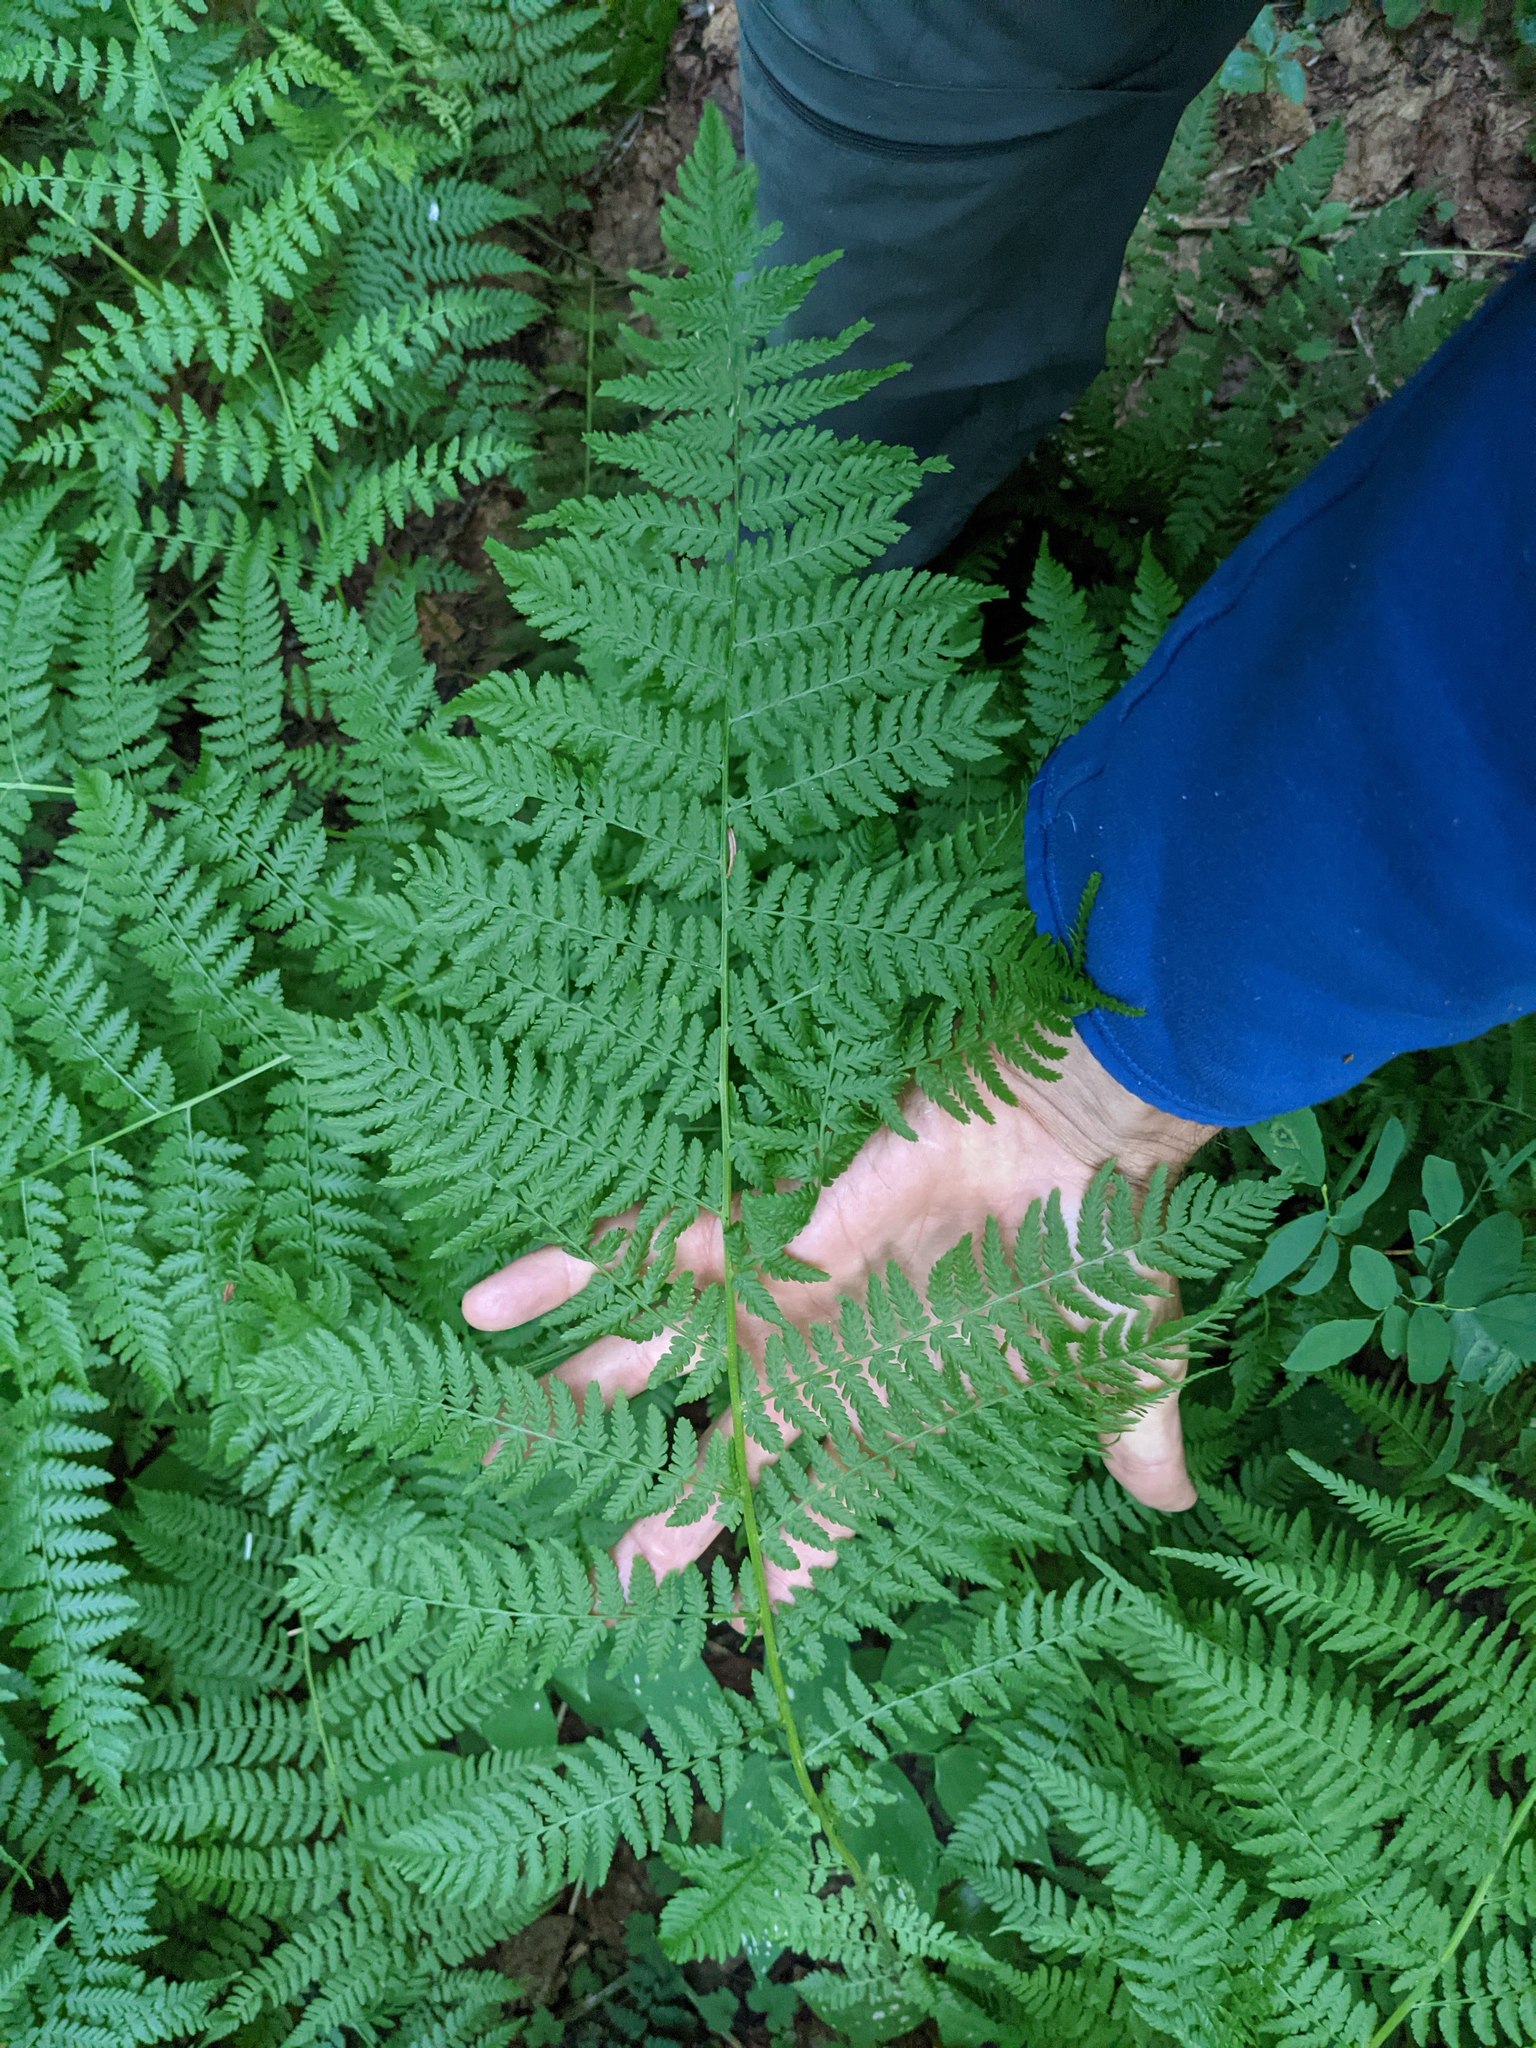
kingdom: Plantae
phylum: Tracheophyta
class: Polypodiopsida
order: Polypodiales
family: Athyriaceae
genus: Athyrium
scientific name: Athyrium filix-femina
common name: Lady fern
